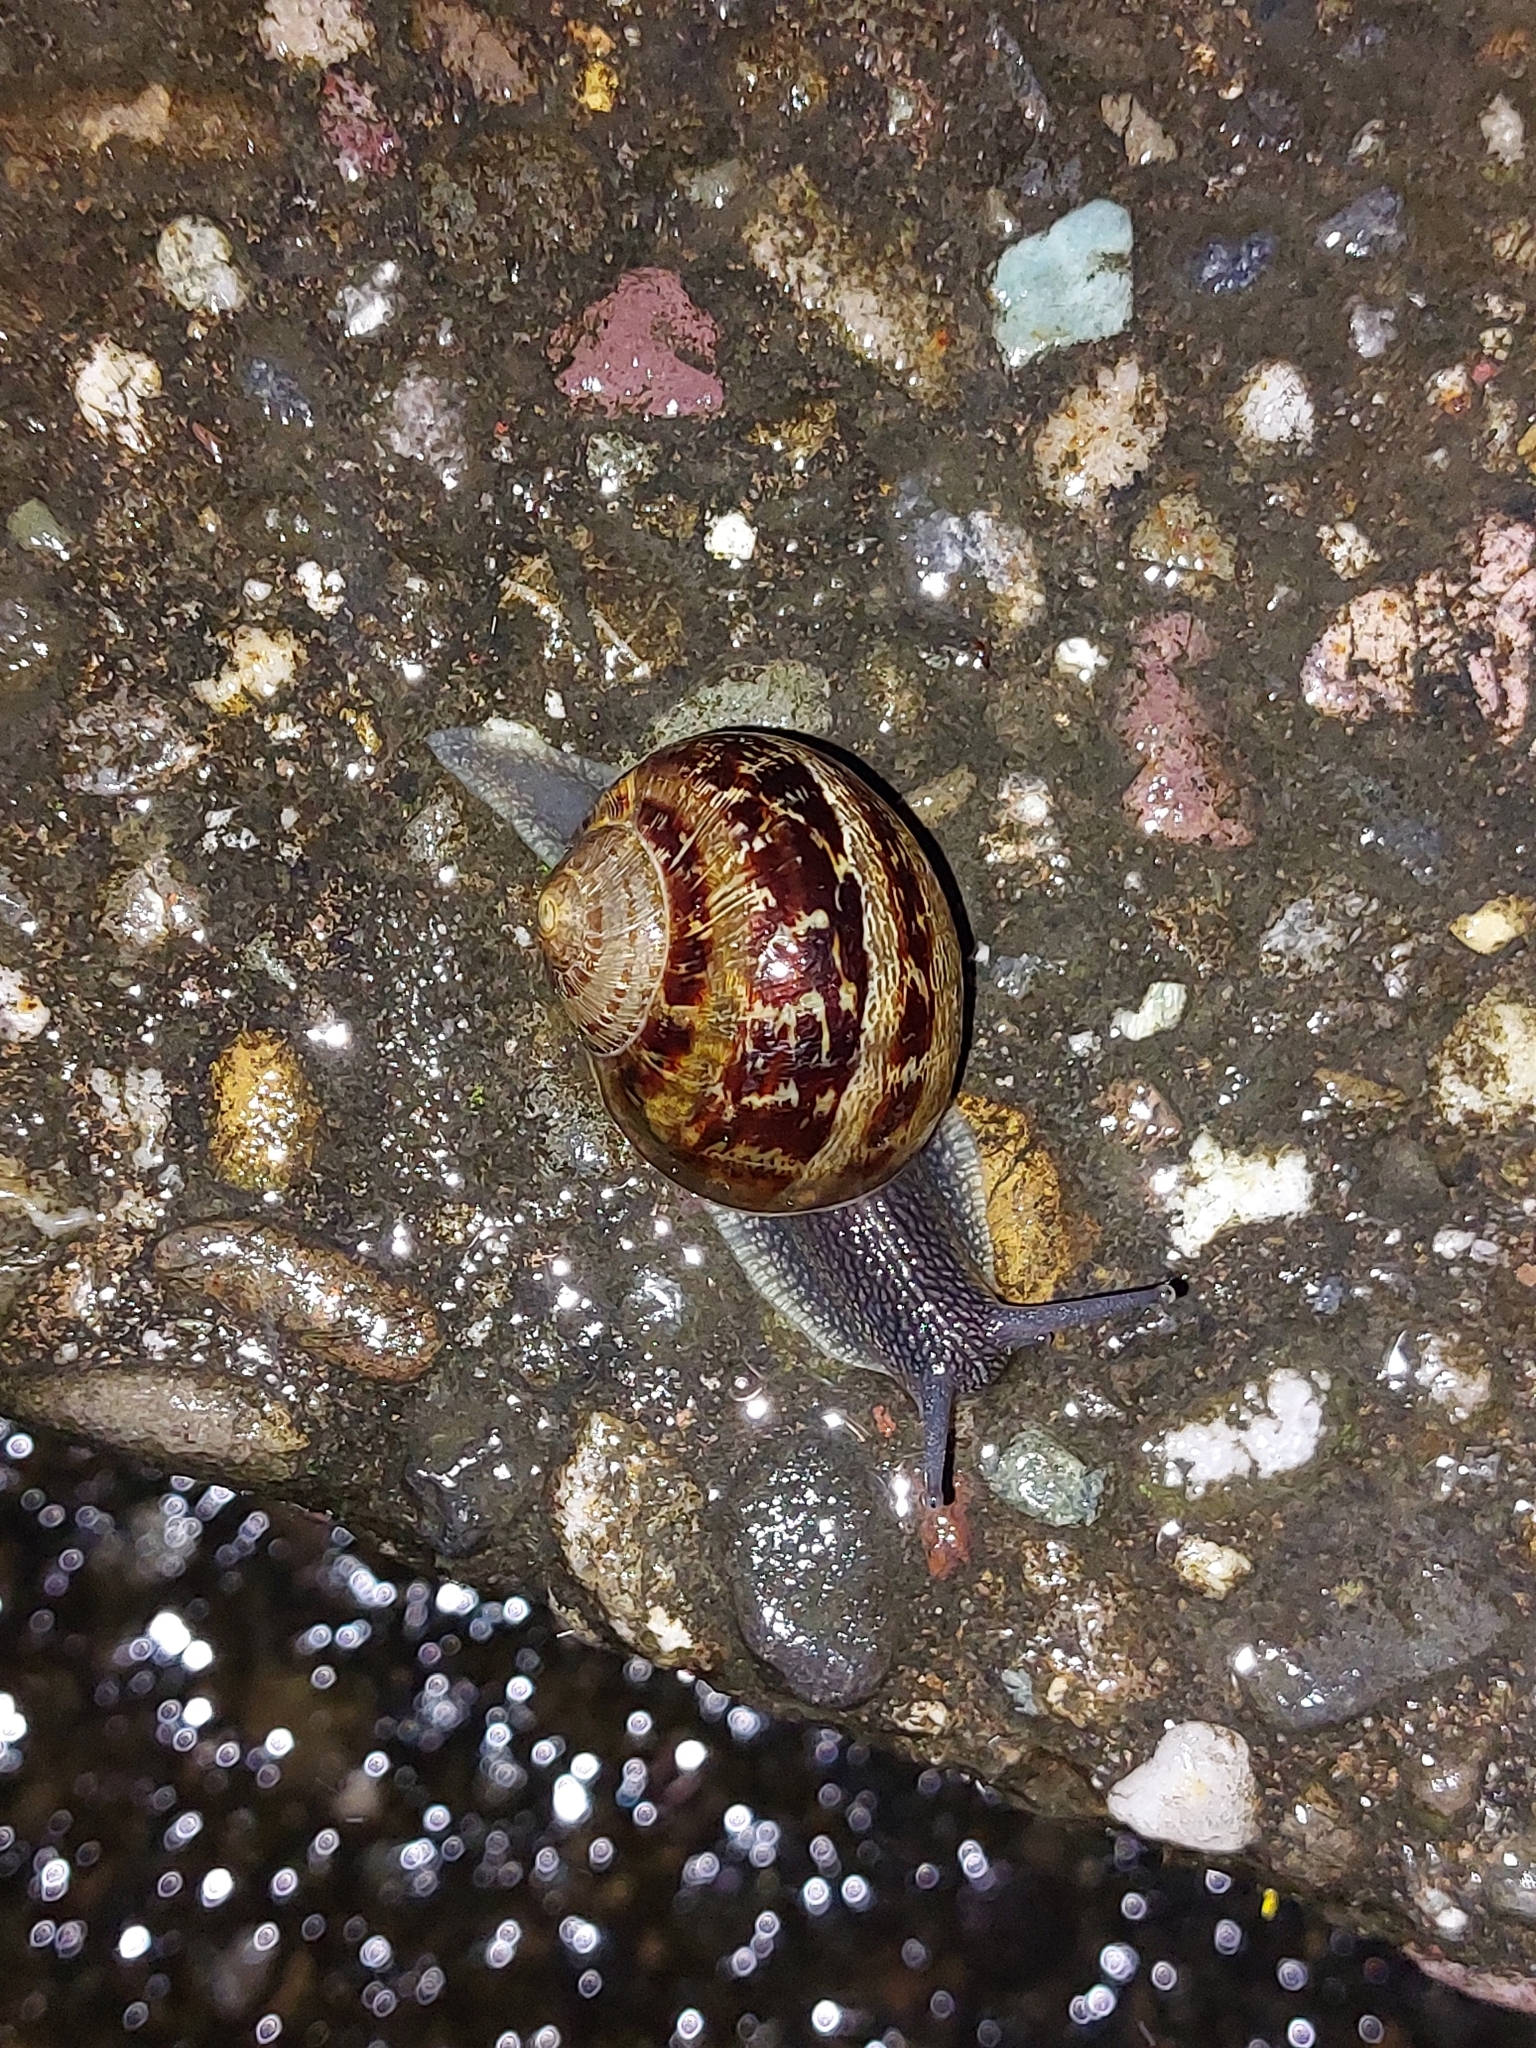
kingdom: Animalia
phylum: Mollusca
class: Gastropoda
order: Stylommatophora
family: Helicidae
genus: Cornu
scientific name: Cornu aspersum
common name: Brown garden snail
